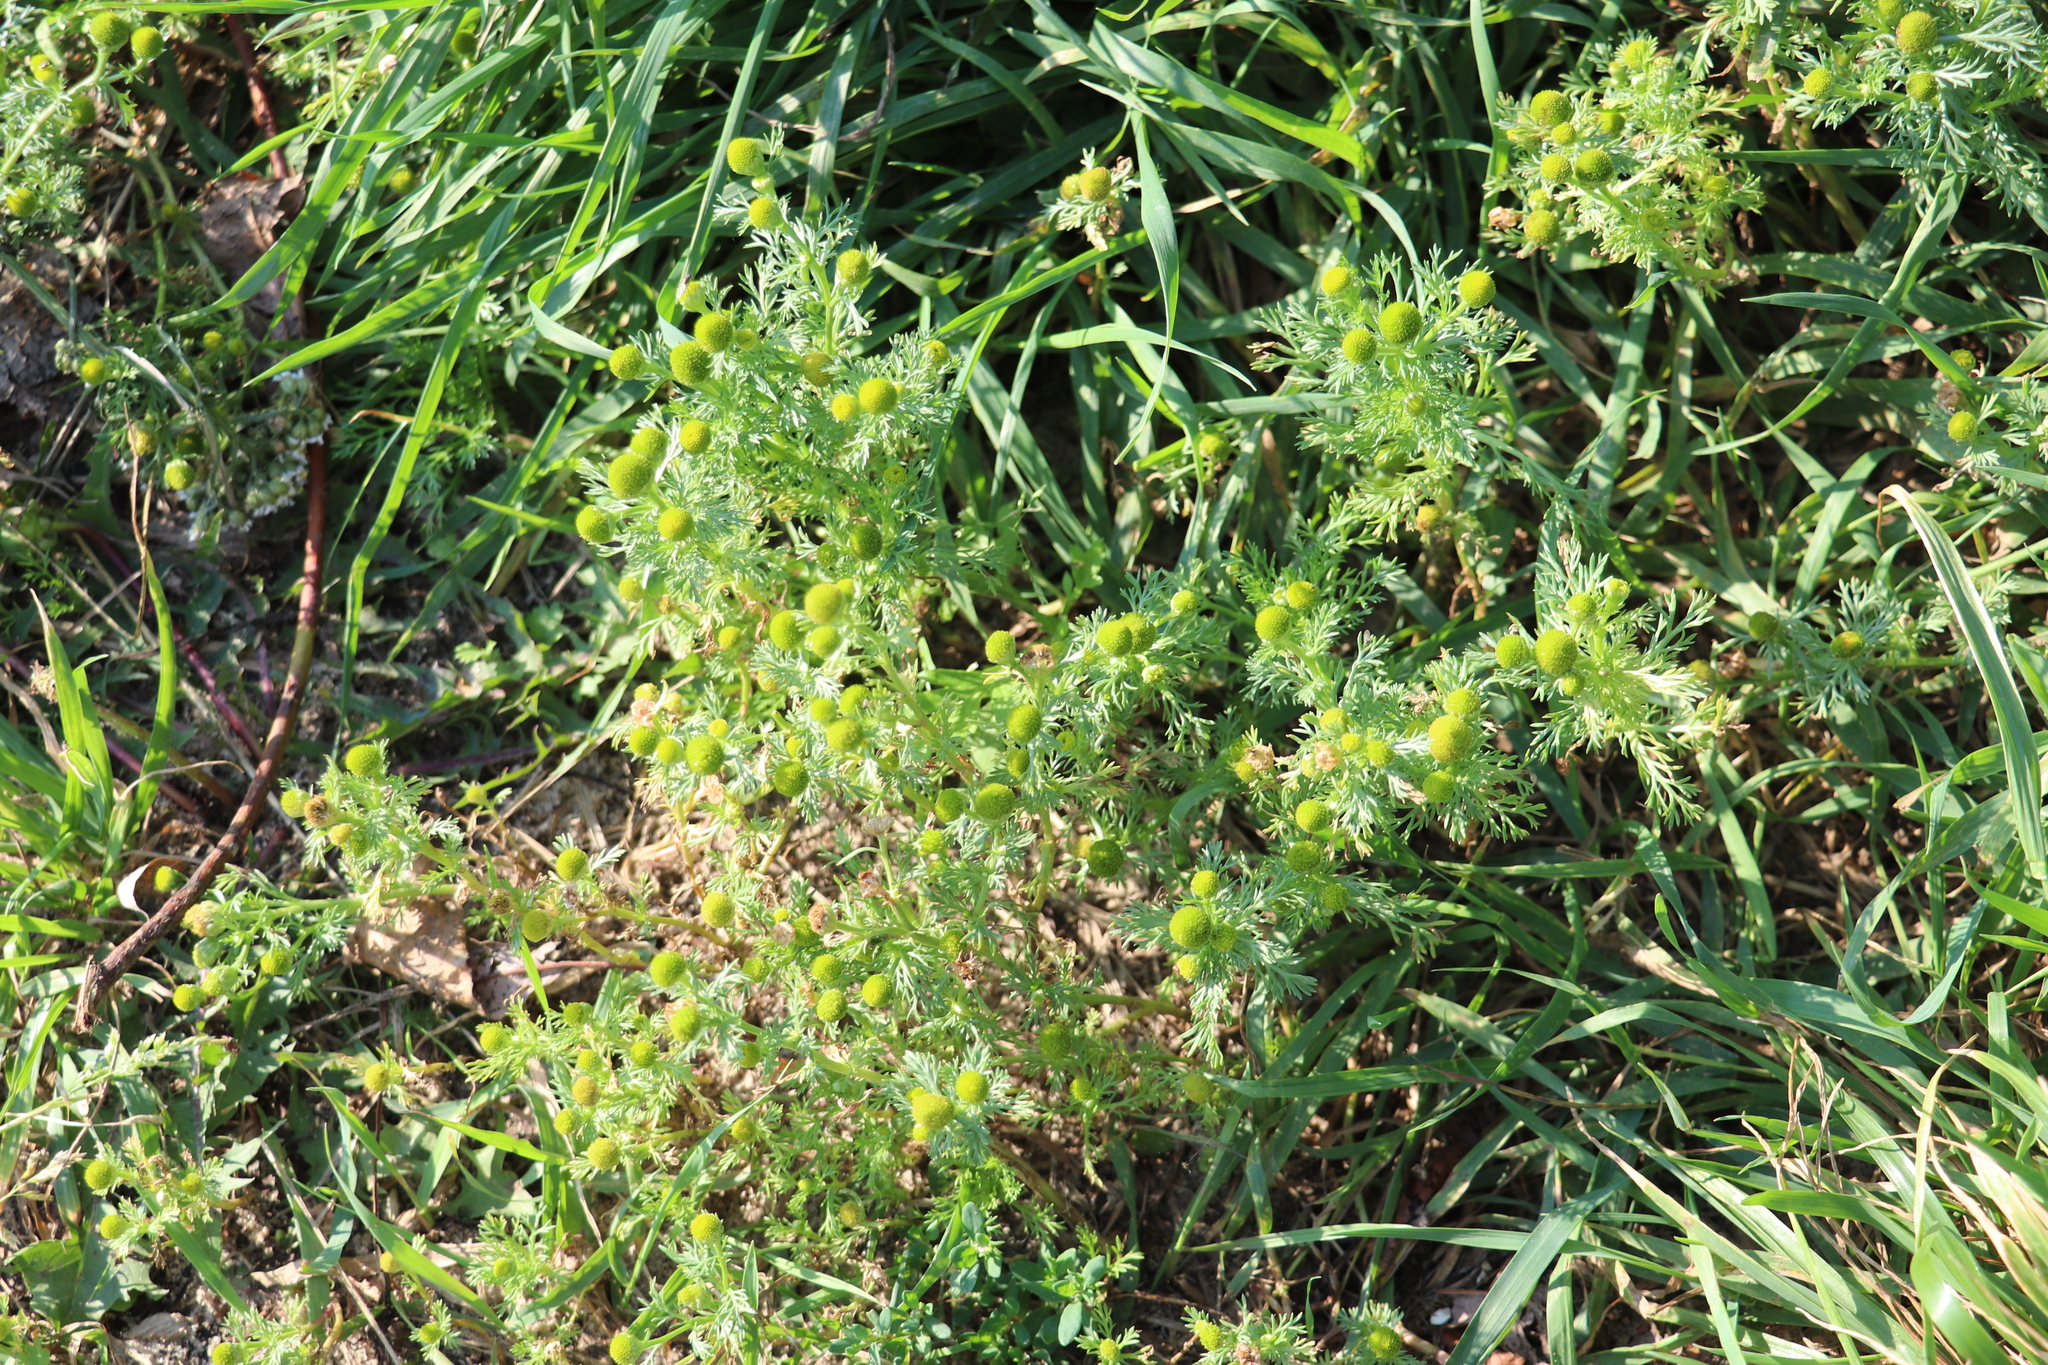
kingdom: Plantae
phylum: Tracheophyta
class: Magnoliopsida
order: Asterales
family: Asteraceae
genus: Matricaria
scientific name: Matricaria discoidea
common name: Disc mayweed
